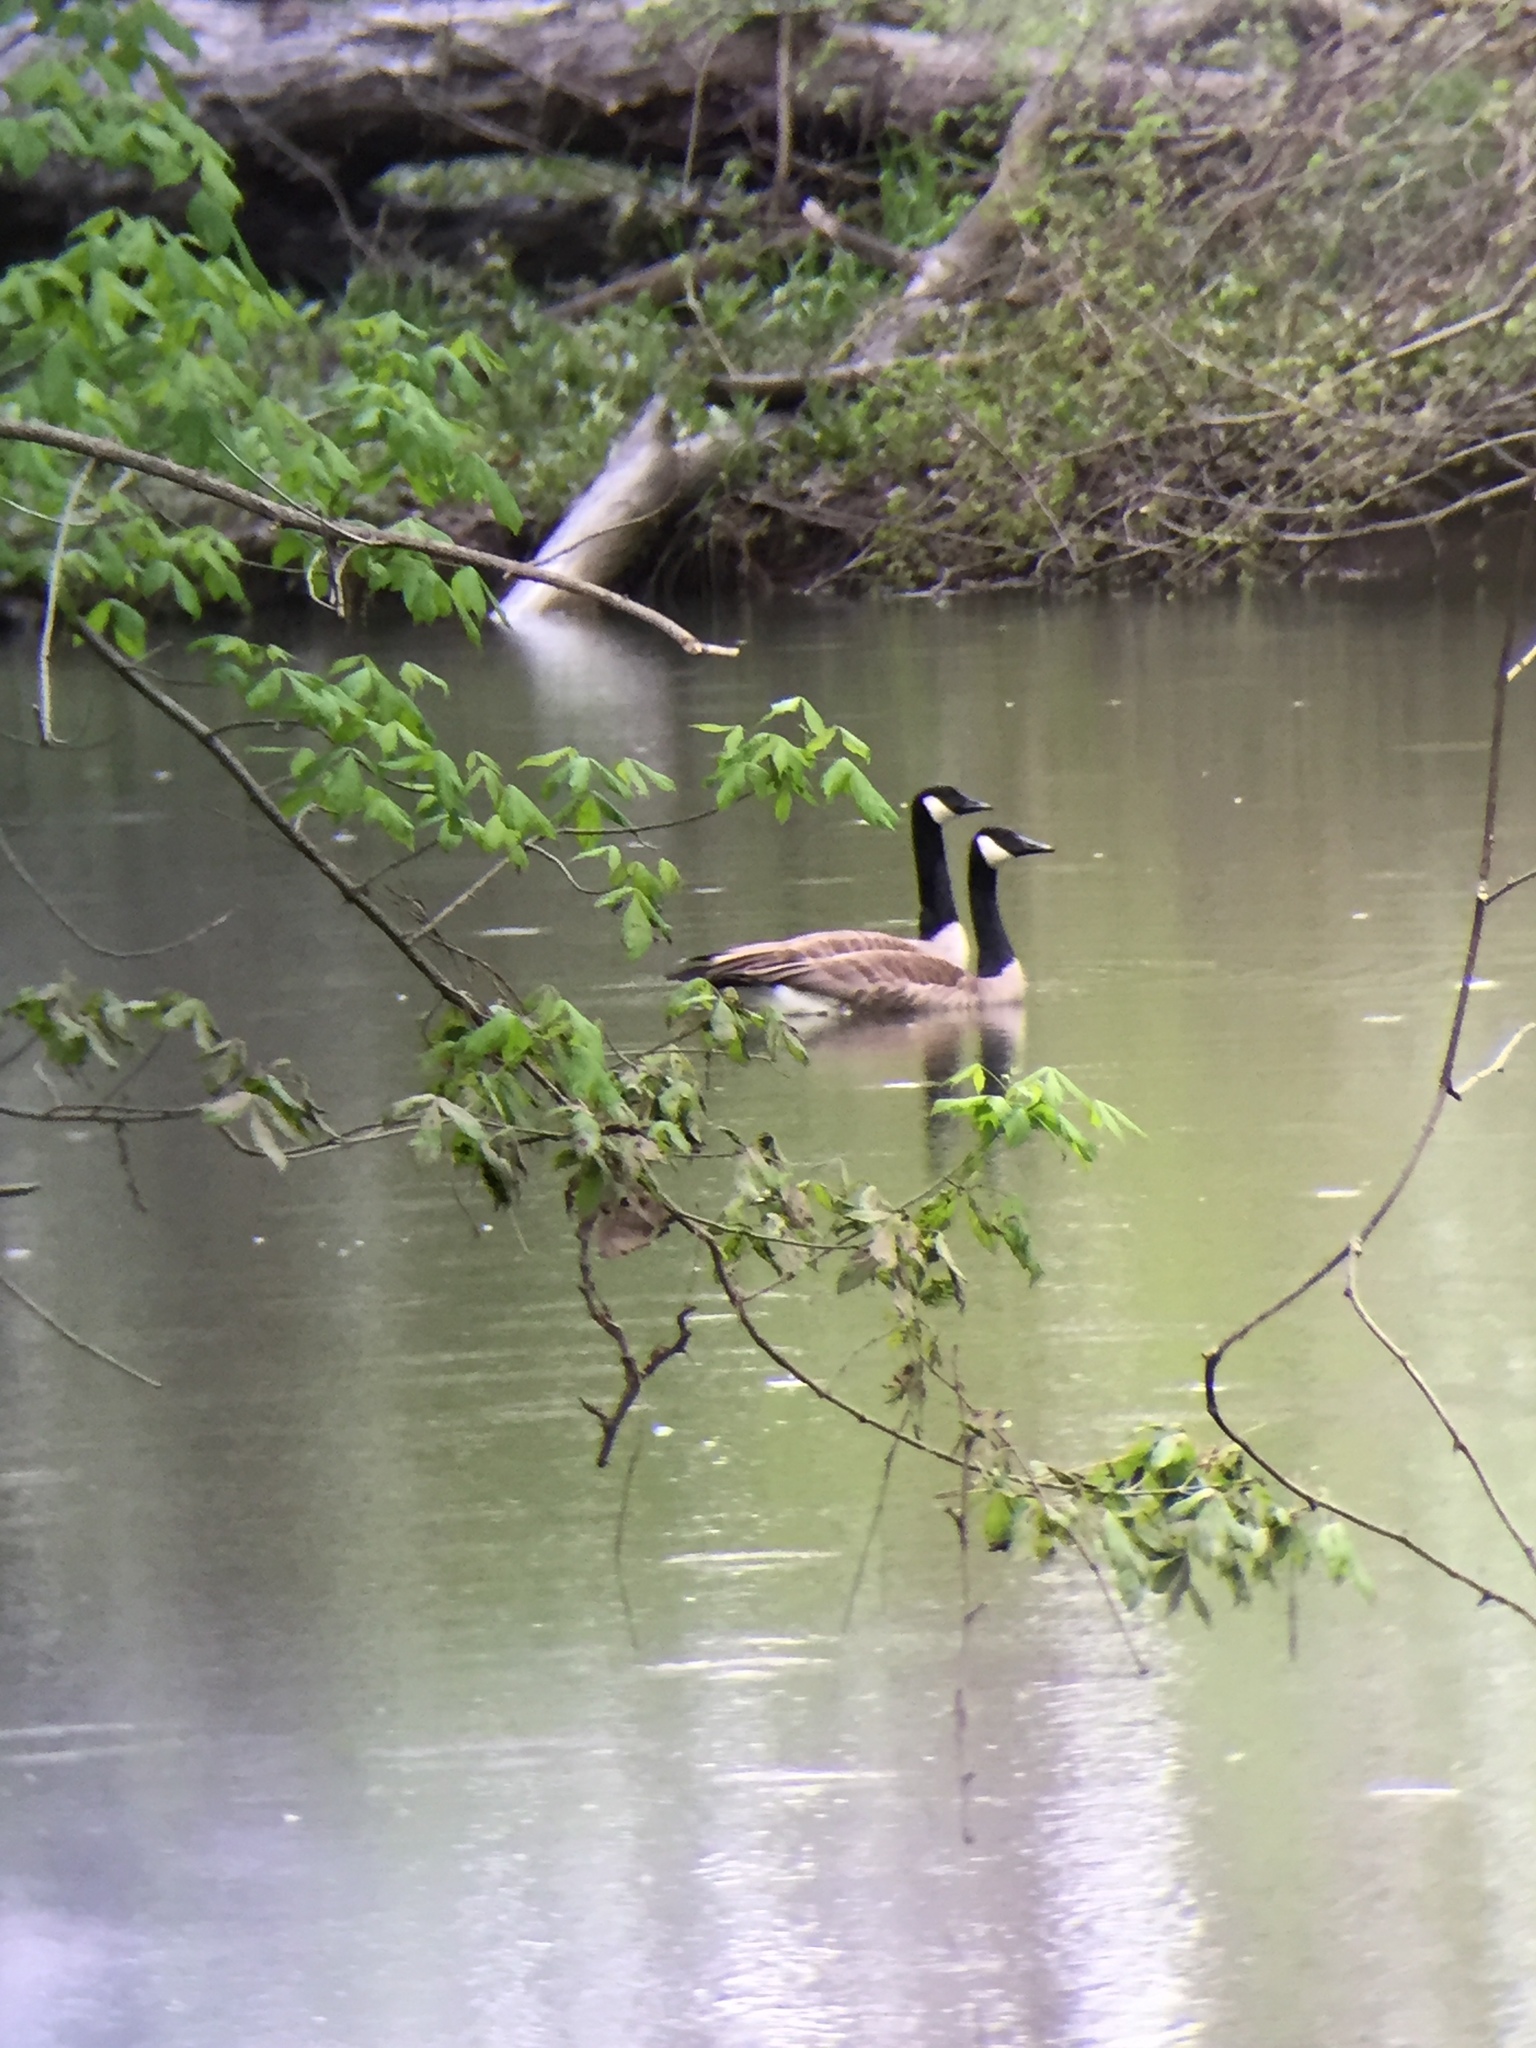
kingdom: Animalia
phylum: Chordata
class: Aves
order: Anseriformes
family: Anatidae
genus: Branta
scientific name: Branta canadensis
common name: Canada goose
